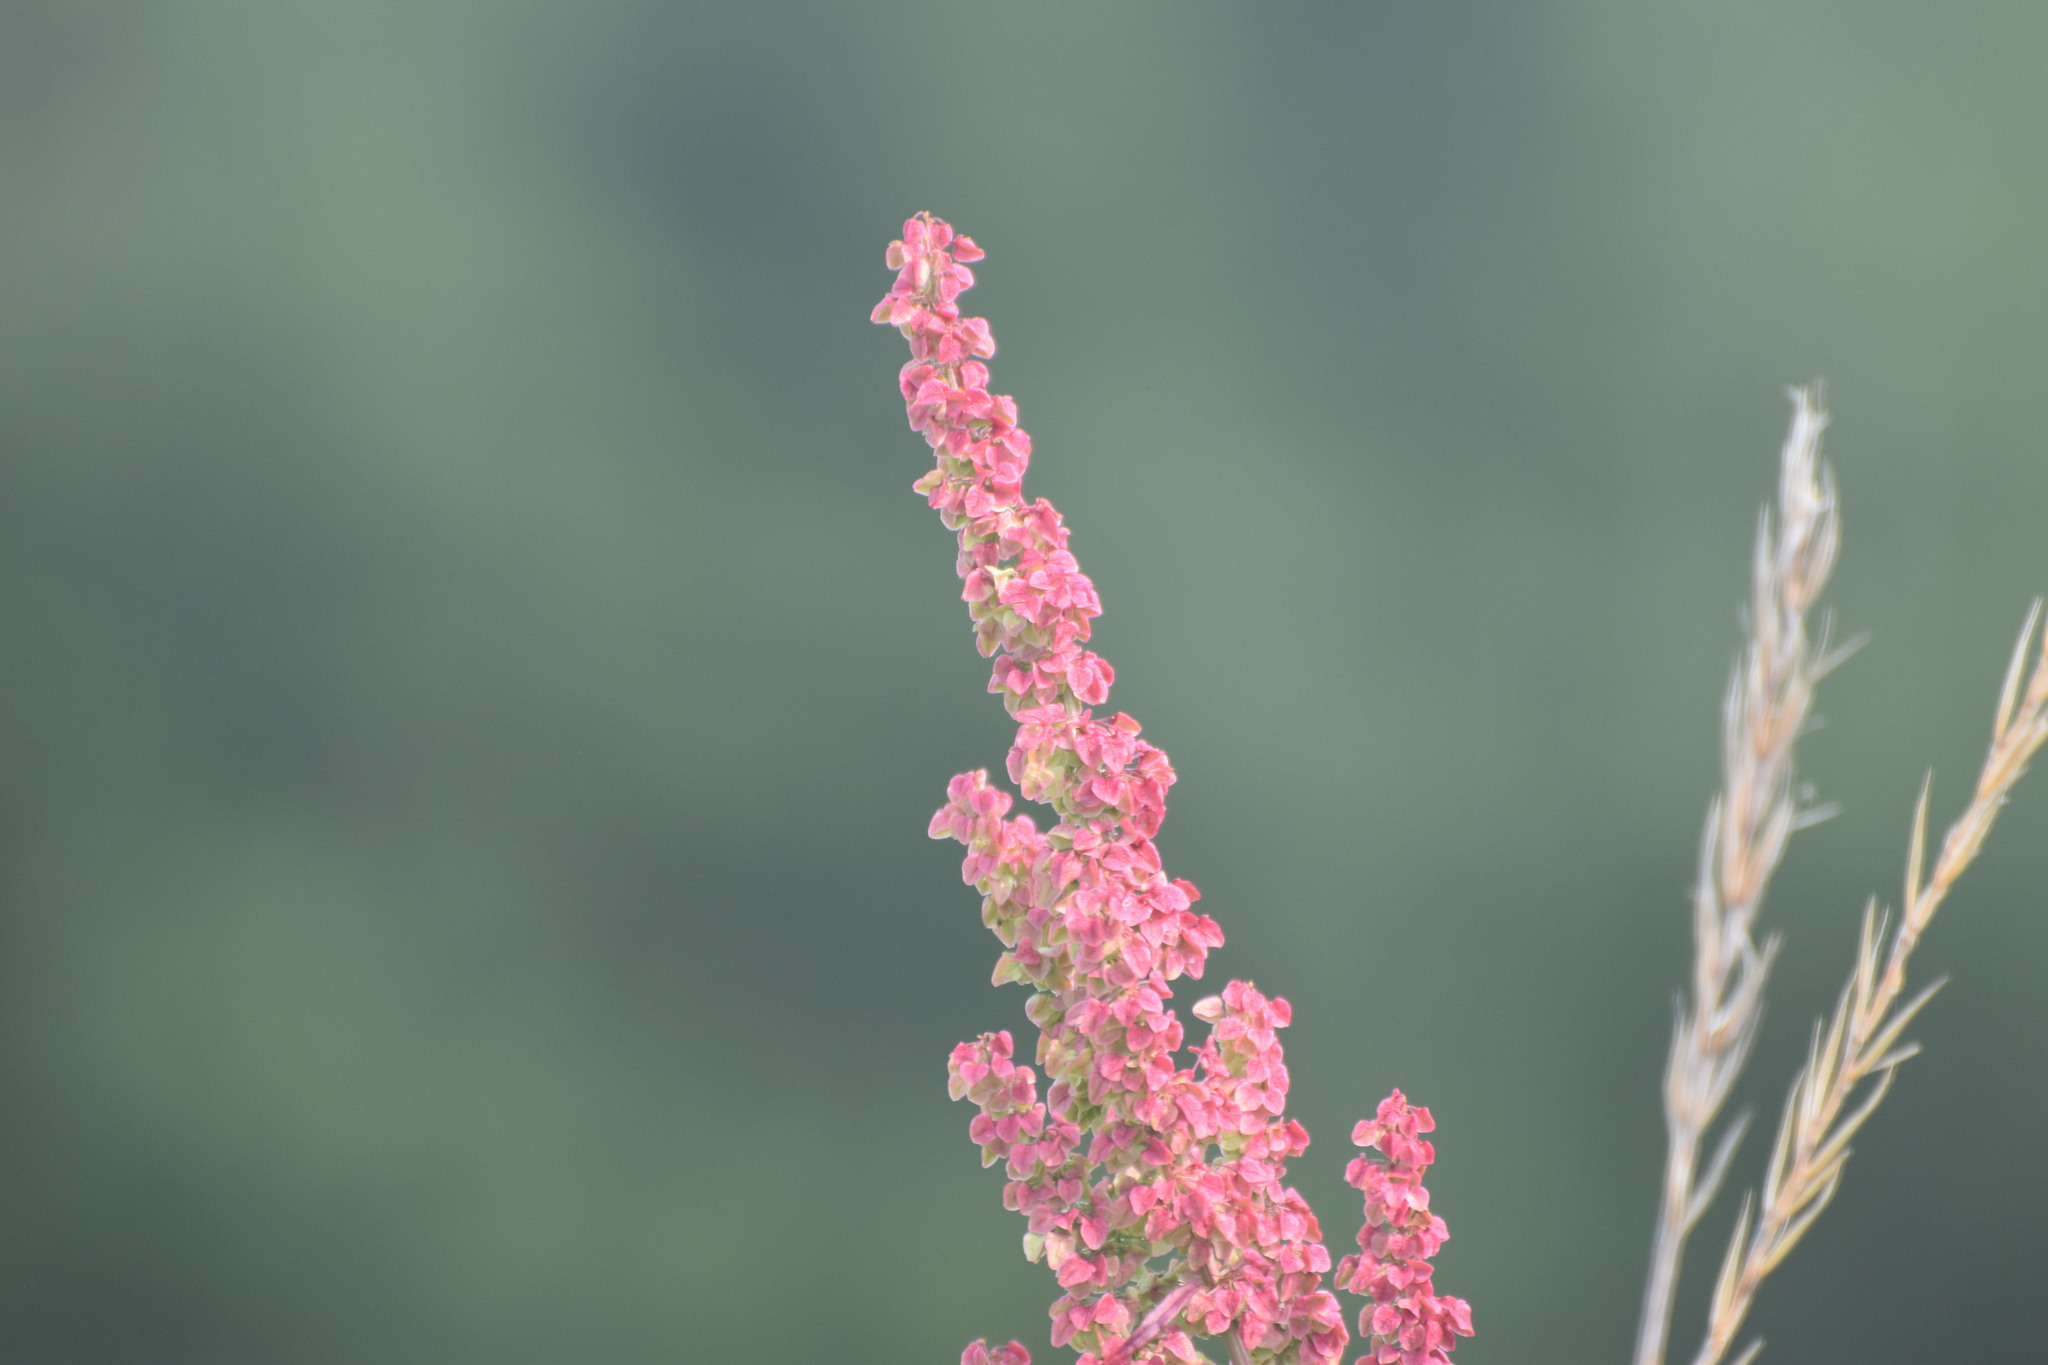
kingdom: Plantae
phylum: Tracheophyta
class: Magnoliopsida
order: Caryophyllales
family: Polygonaceae
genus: Rumex
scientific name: Rumex pseudonatronatus
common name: Field dock
